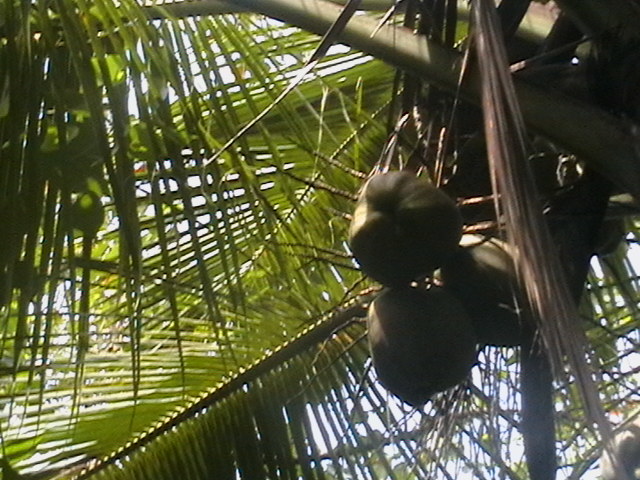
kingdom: Plantae
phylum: Tracheophyta
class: Liliopsida
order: Arecales
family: Arecaceae
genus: Cocos
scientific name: Cocos nucifera
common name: Coconut palm
